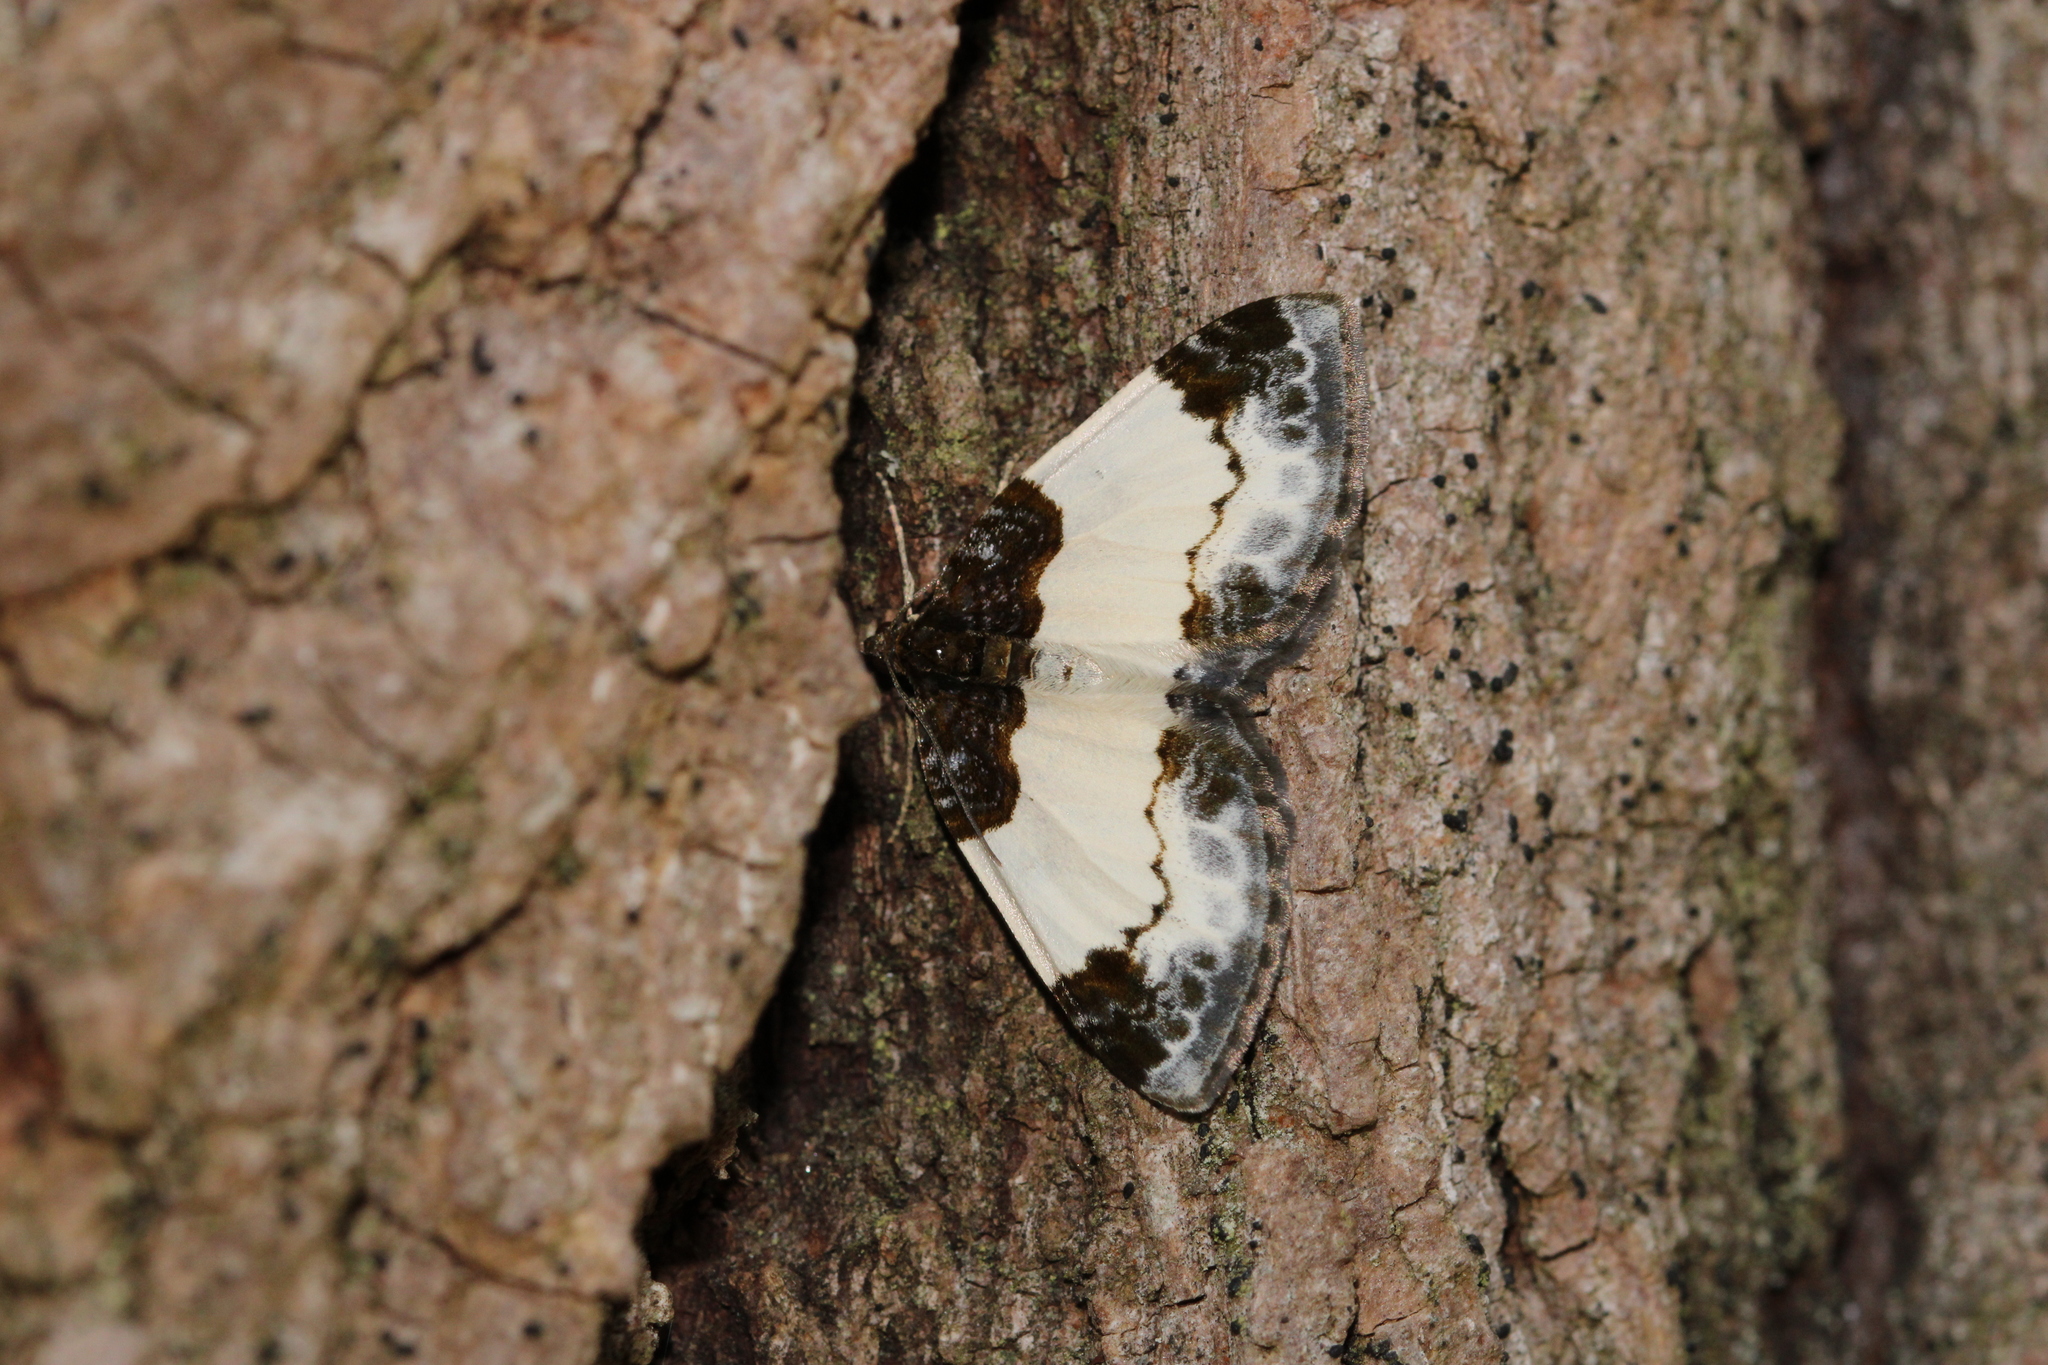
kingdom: Animalia
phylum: Arthropoda
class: Insecta
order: Lepidoptera
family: Geometridae
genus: Mesoleuca
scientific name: Mesoleuca albicillata
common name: Beautiful carpet
